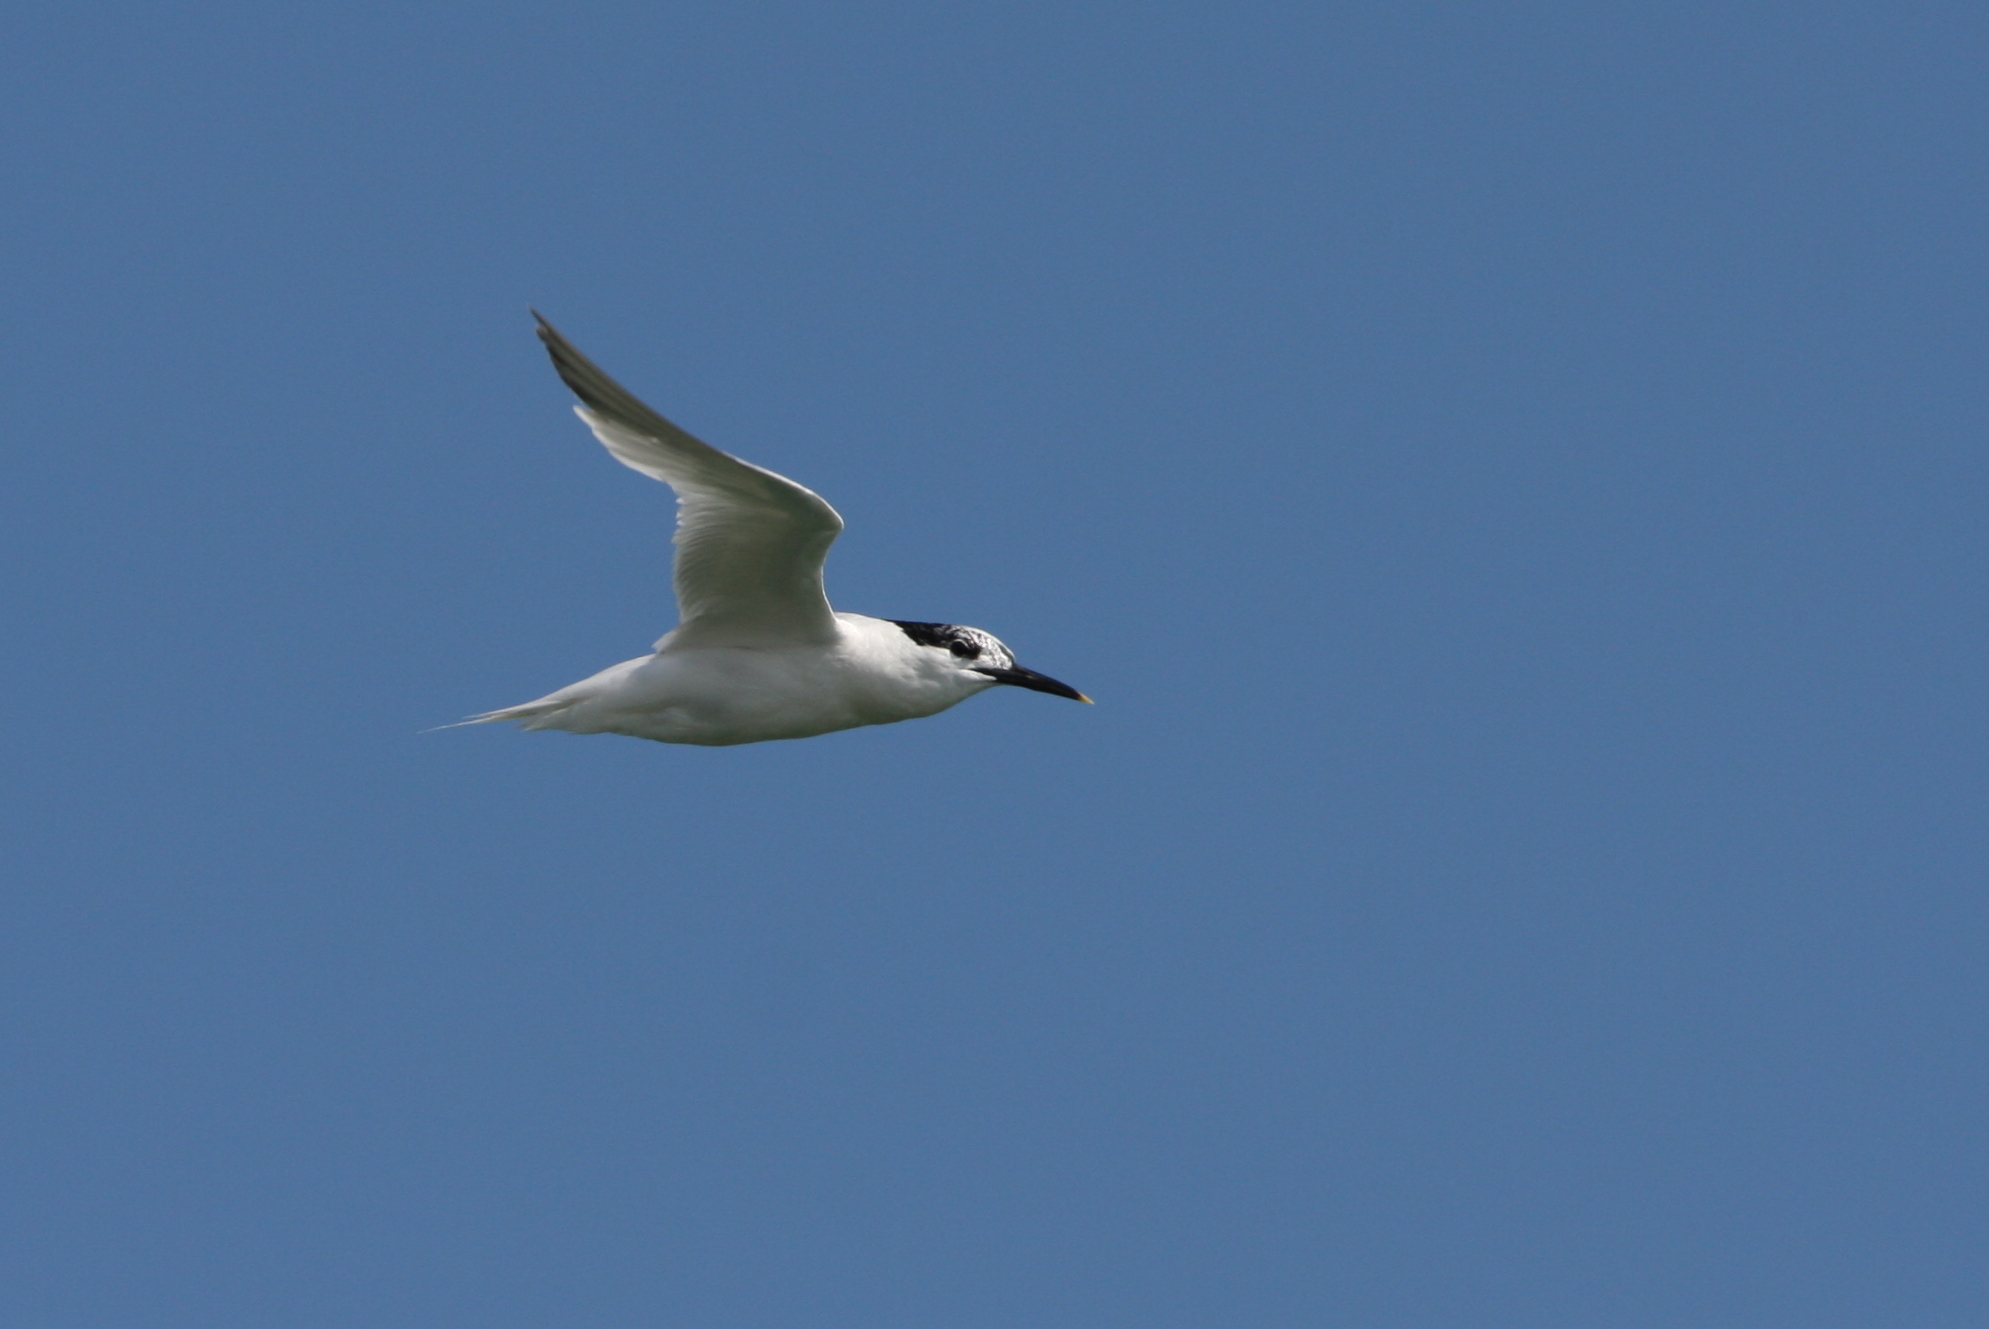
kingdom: Animalia
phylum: Chordata
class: Aves
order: Charadriiformes
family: Laridae
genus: Thalasseus
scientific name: Thalasseus sandvicensis
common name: Sandwich tern
